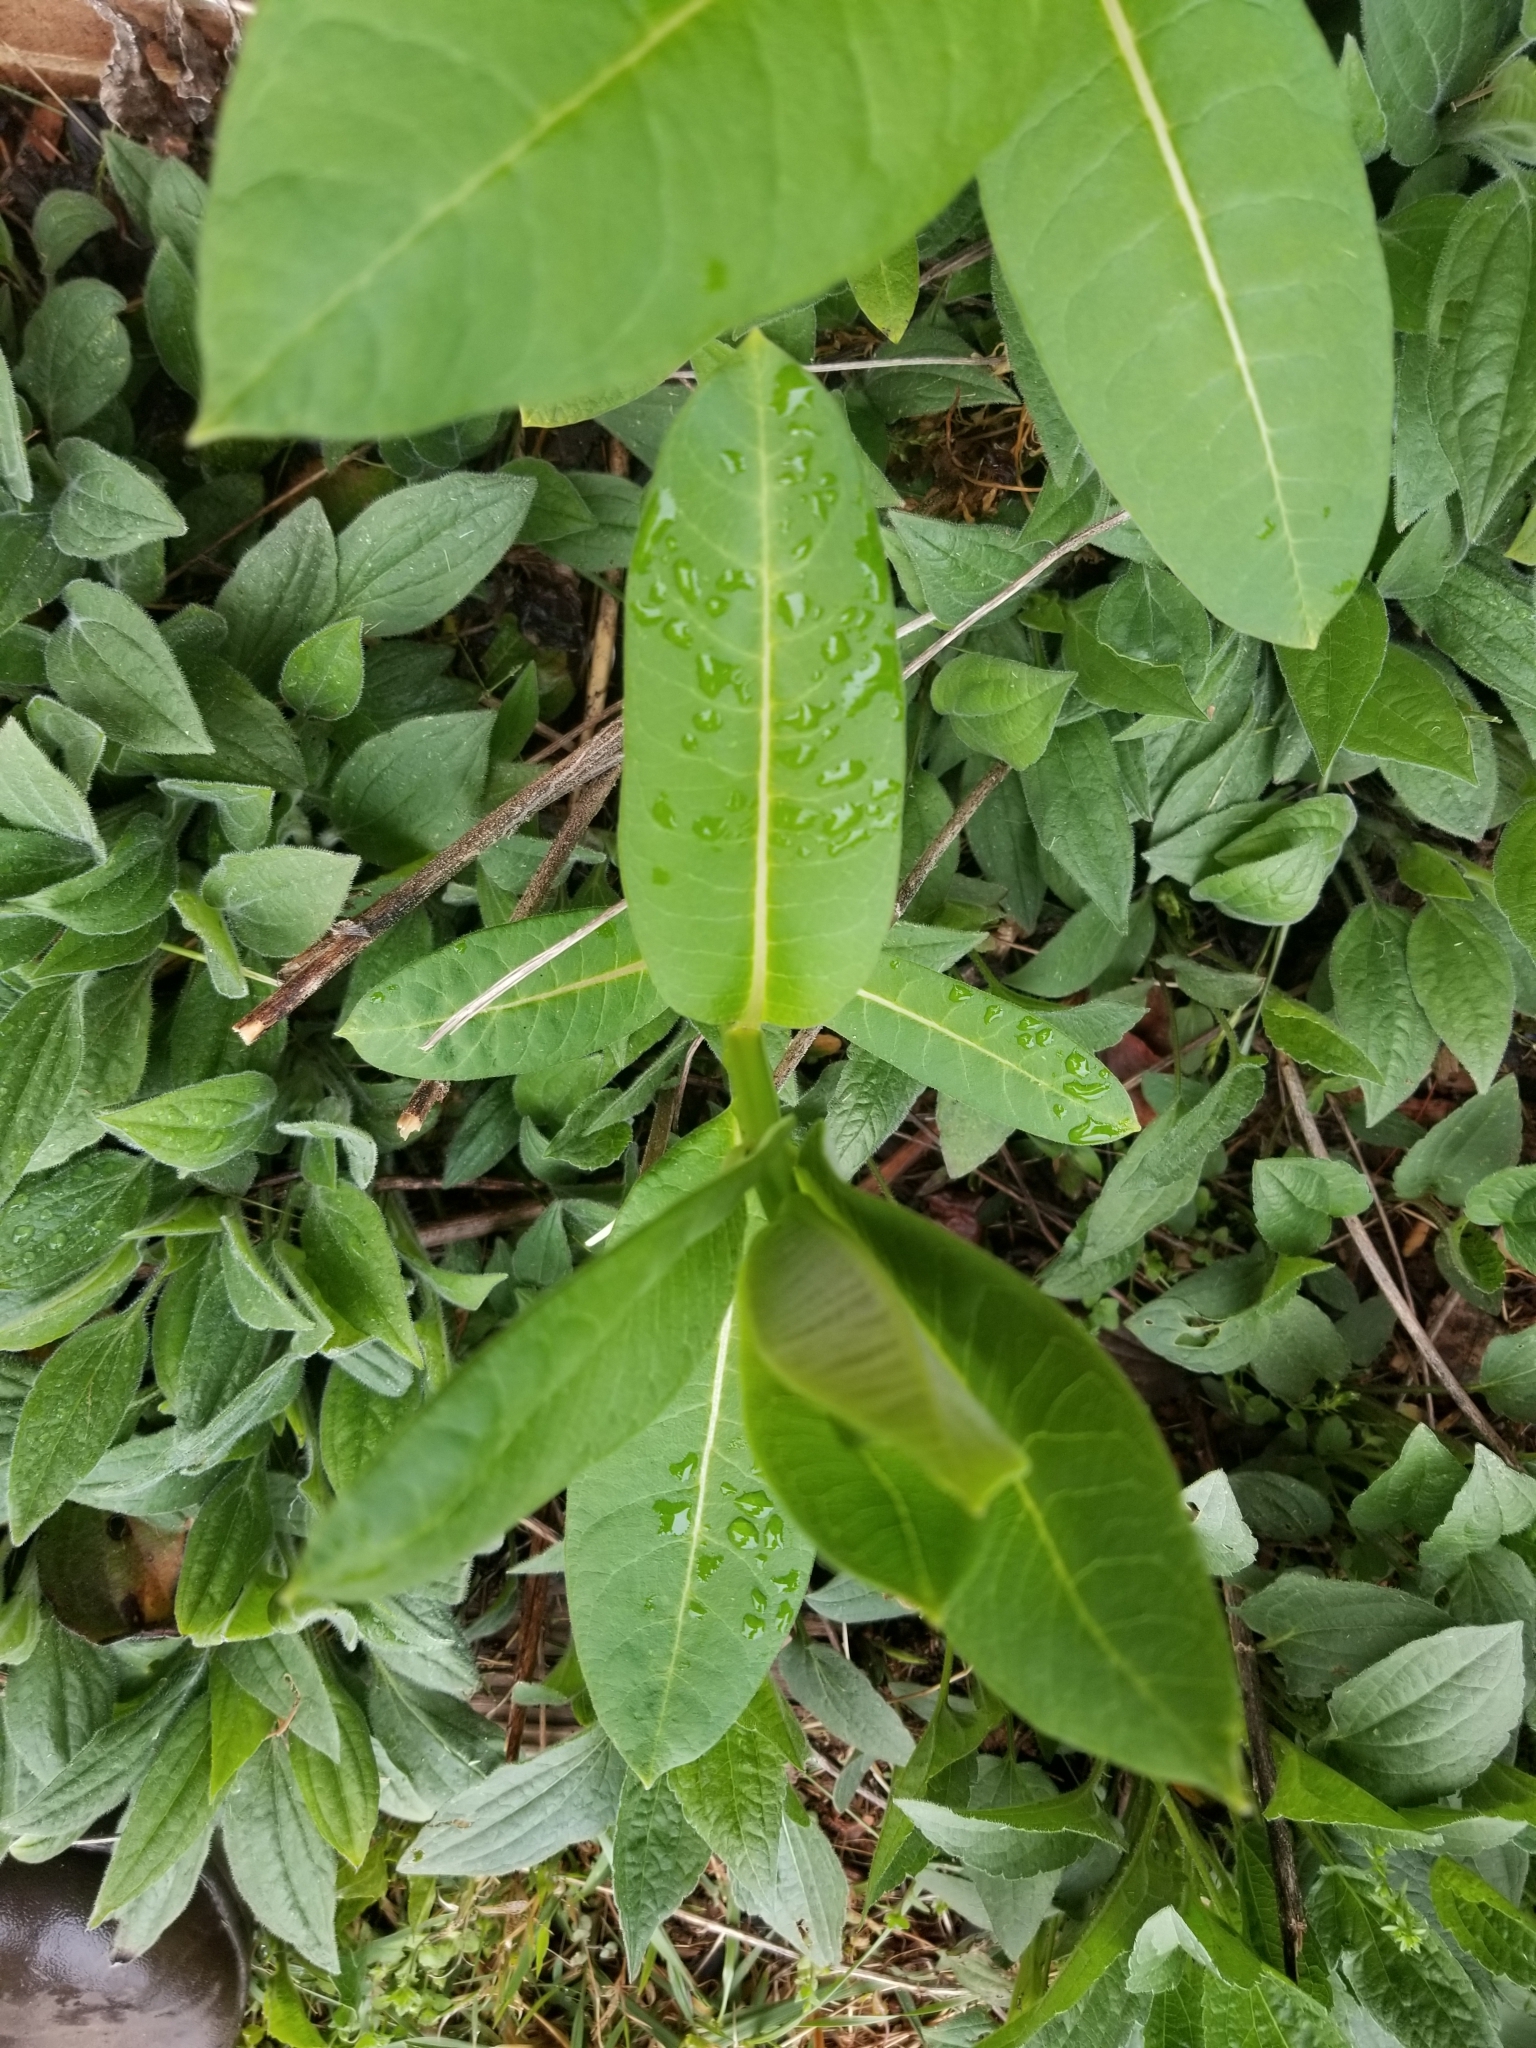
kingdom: Plantae
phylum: Tracheophyta
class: Magnoliopsida
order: Gentianales
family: Apocynaceae
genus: Asclepias
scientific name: Asclepias syriaca
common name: Common milkweed
